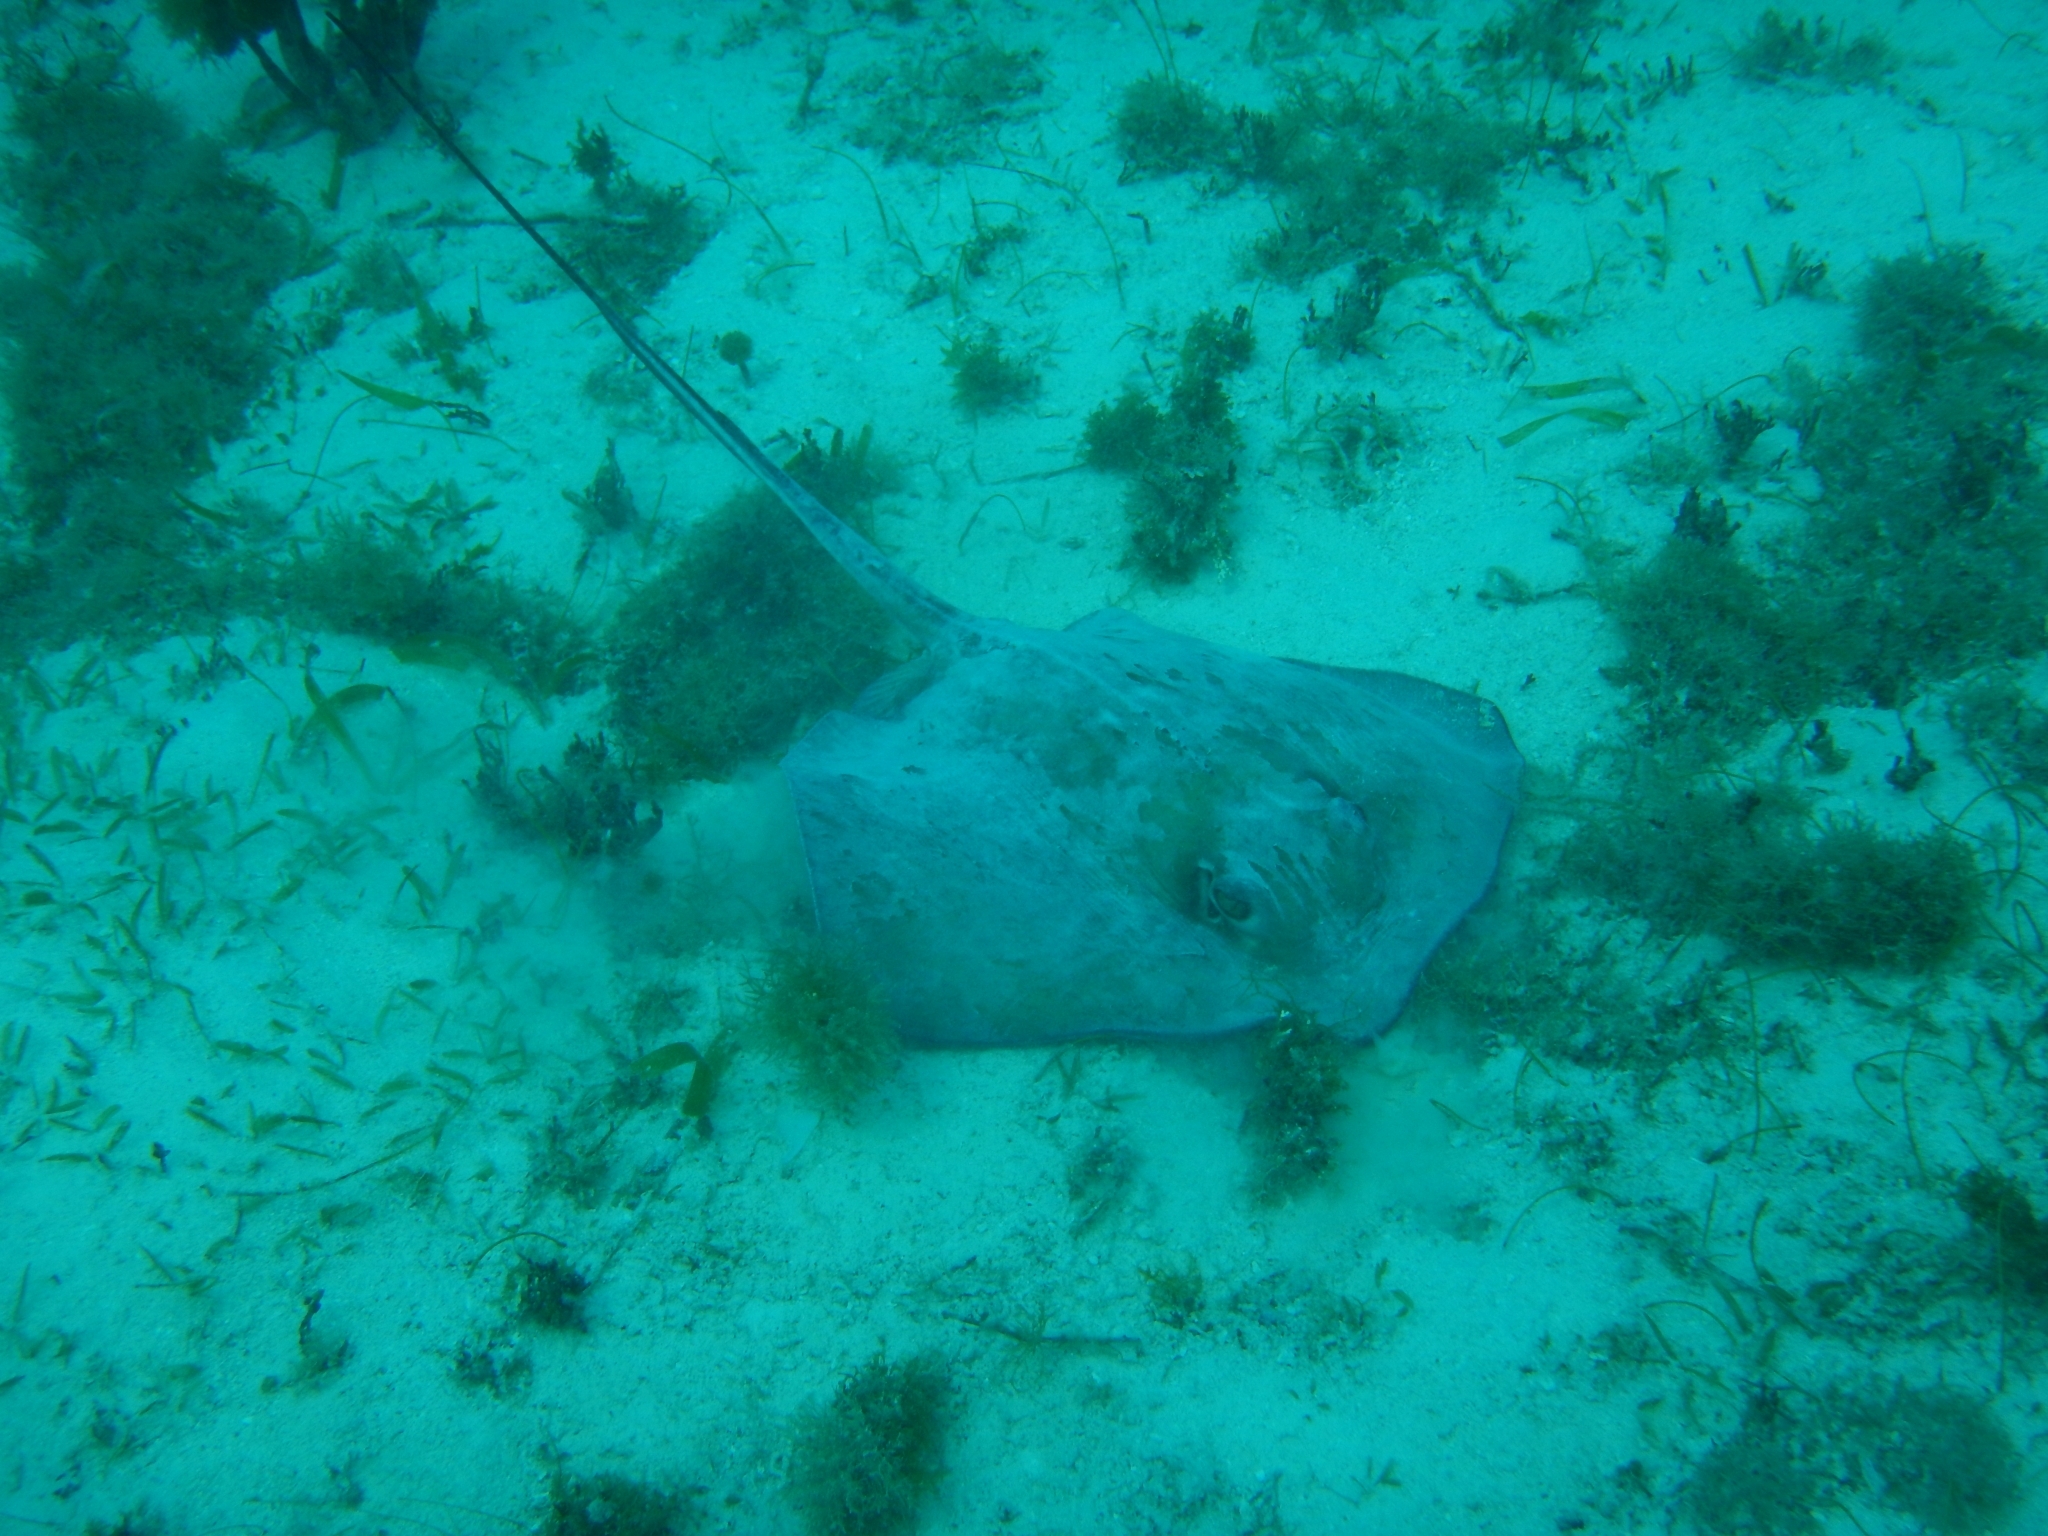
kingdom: Animalia
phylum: Chordata
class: Elasmobranchii
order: Myliobatiformes
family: Dasyatidae
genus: Hypanus
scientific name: Hypanus americanus
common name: Southern stingray
